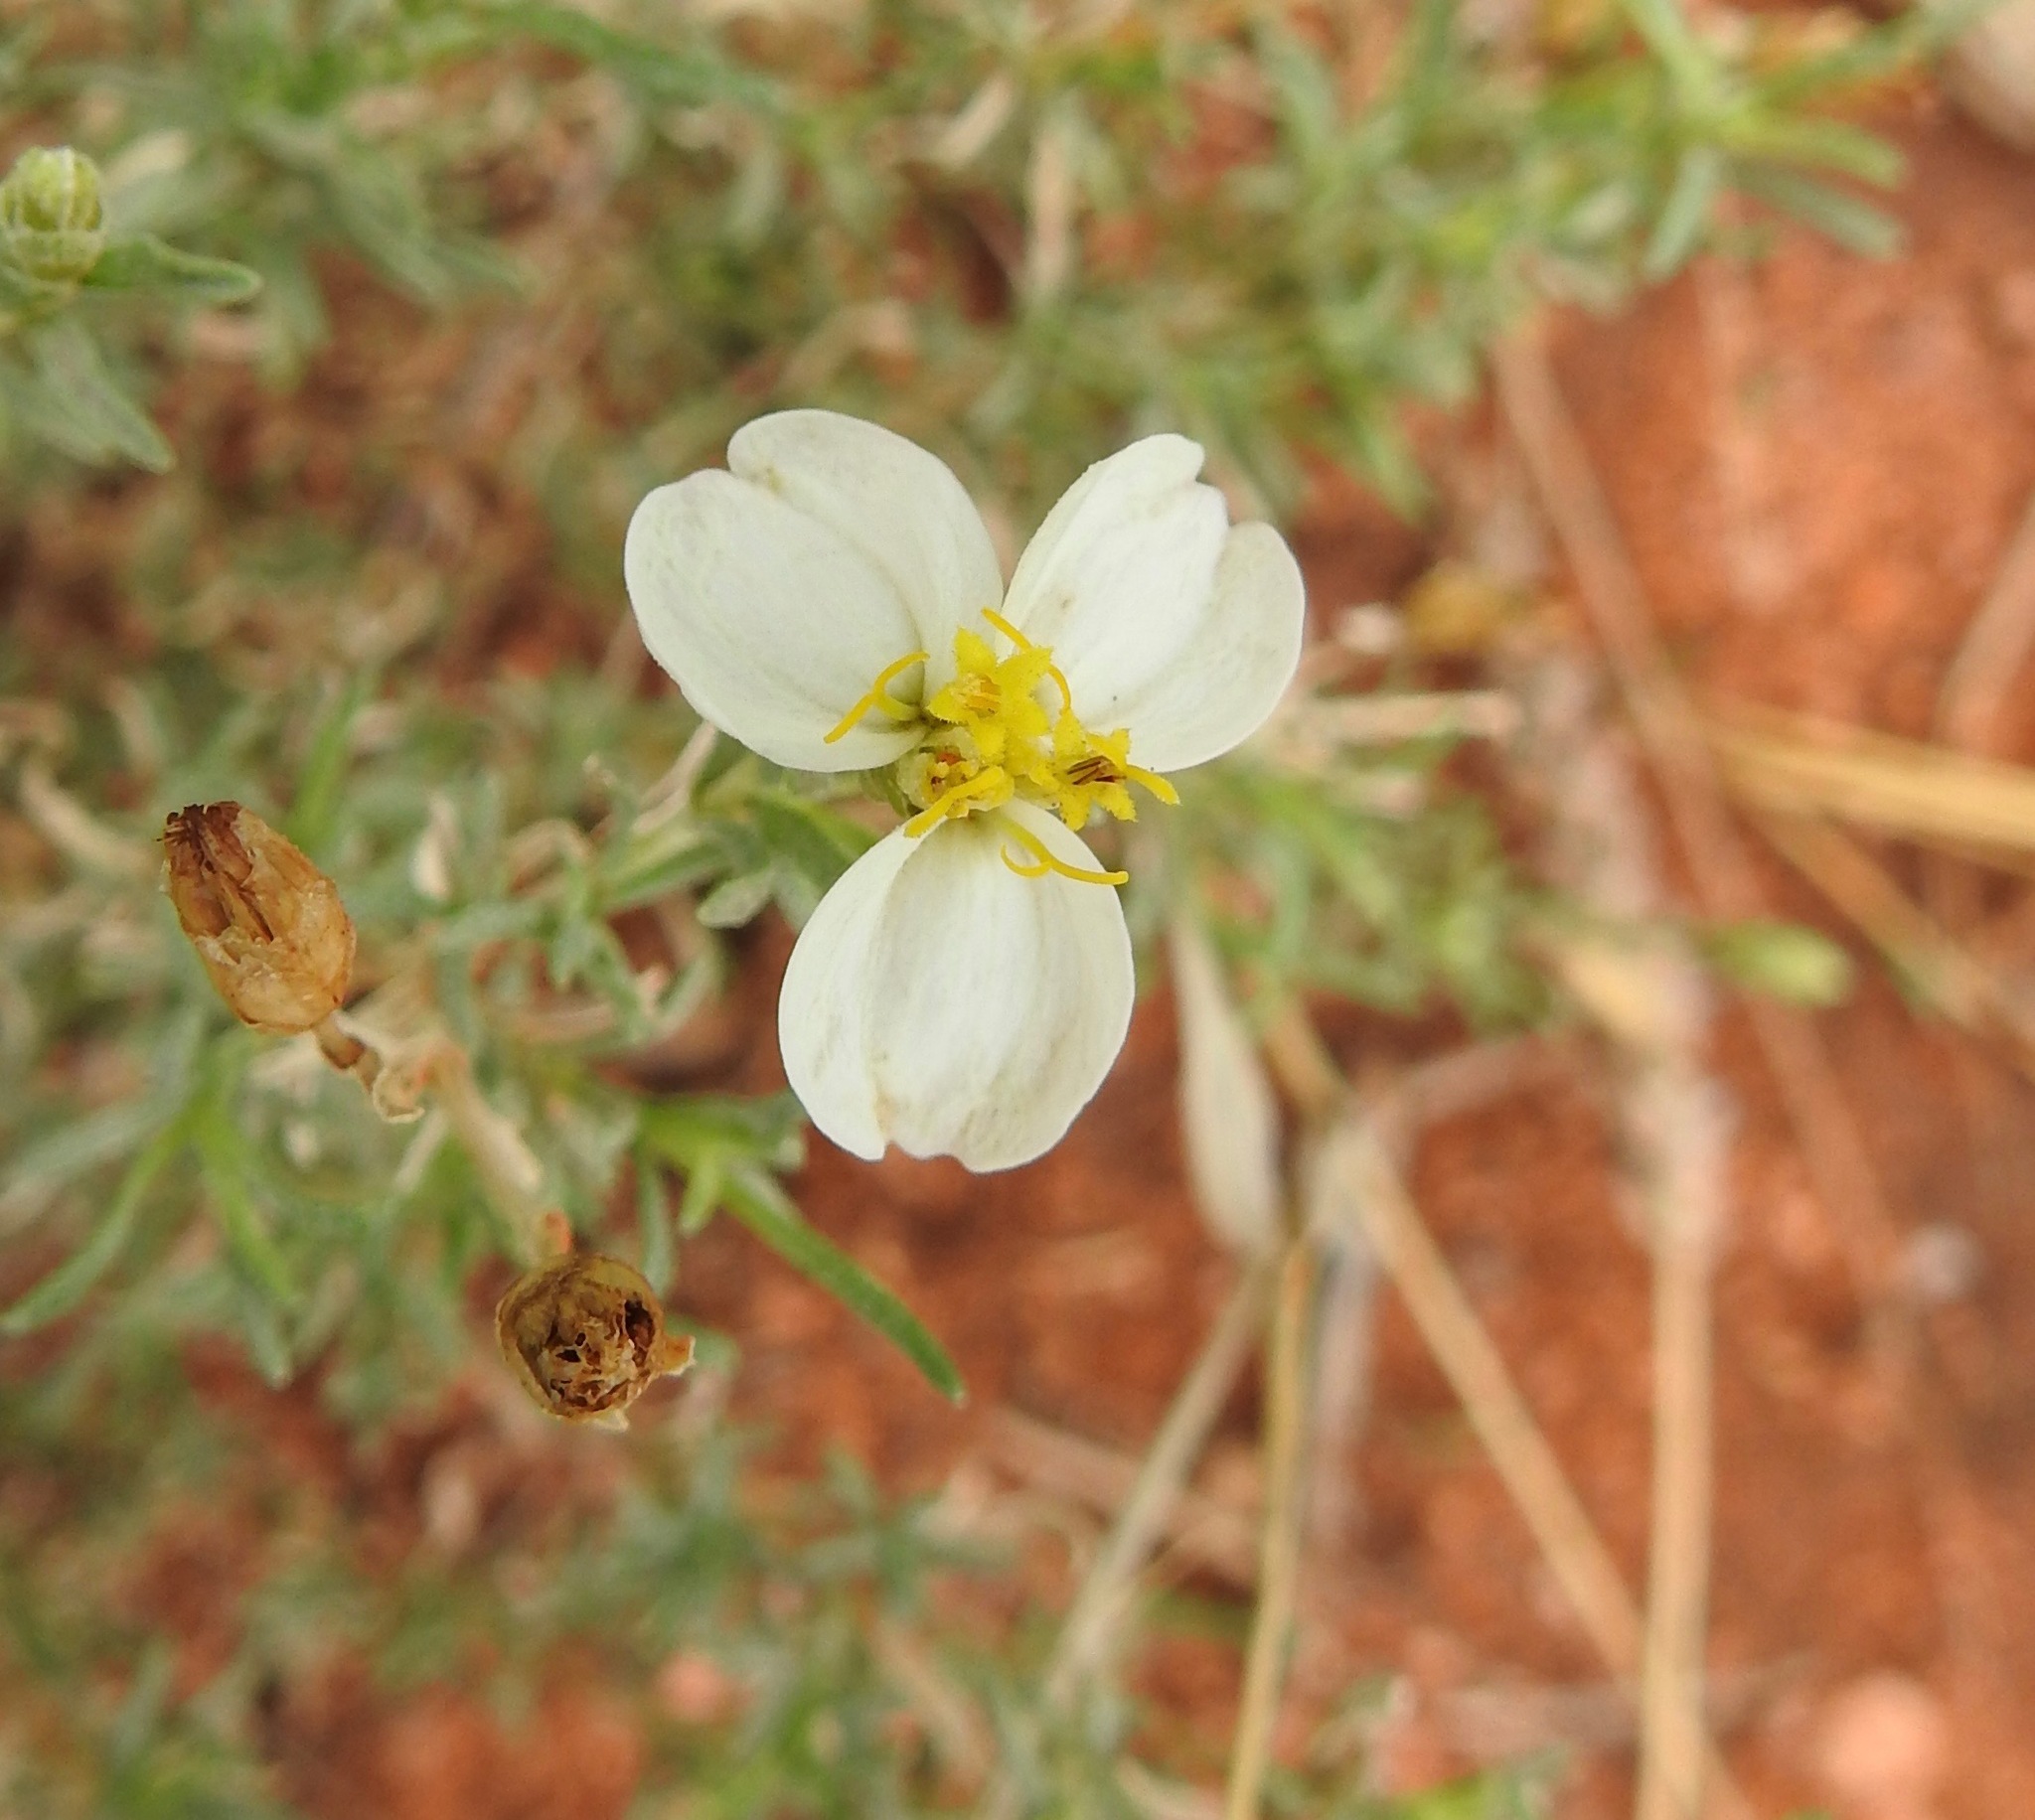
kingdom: Plantae
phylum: Tracheophyta
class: Magnoliopsida
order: Asterales
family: Asteraceae
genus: Zinnia
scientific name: Zinnia acerosa
